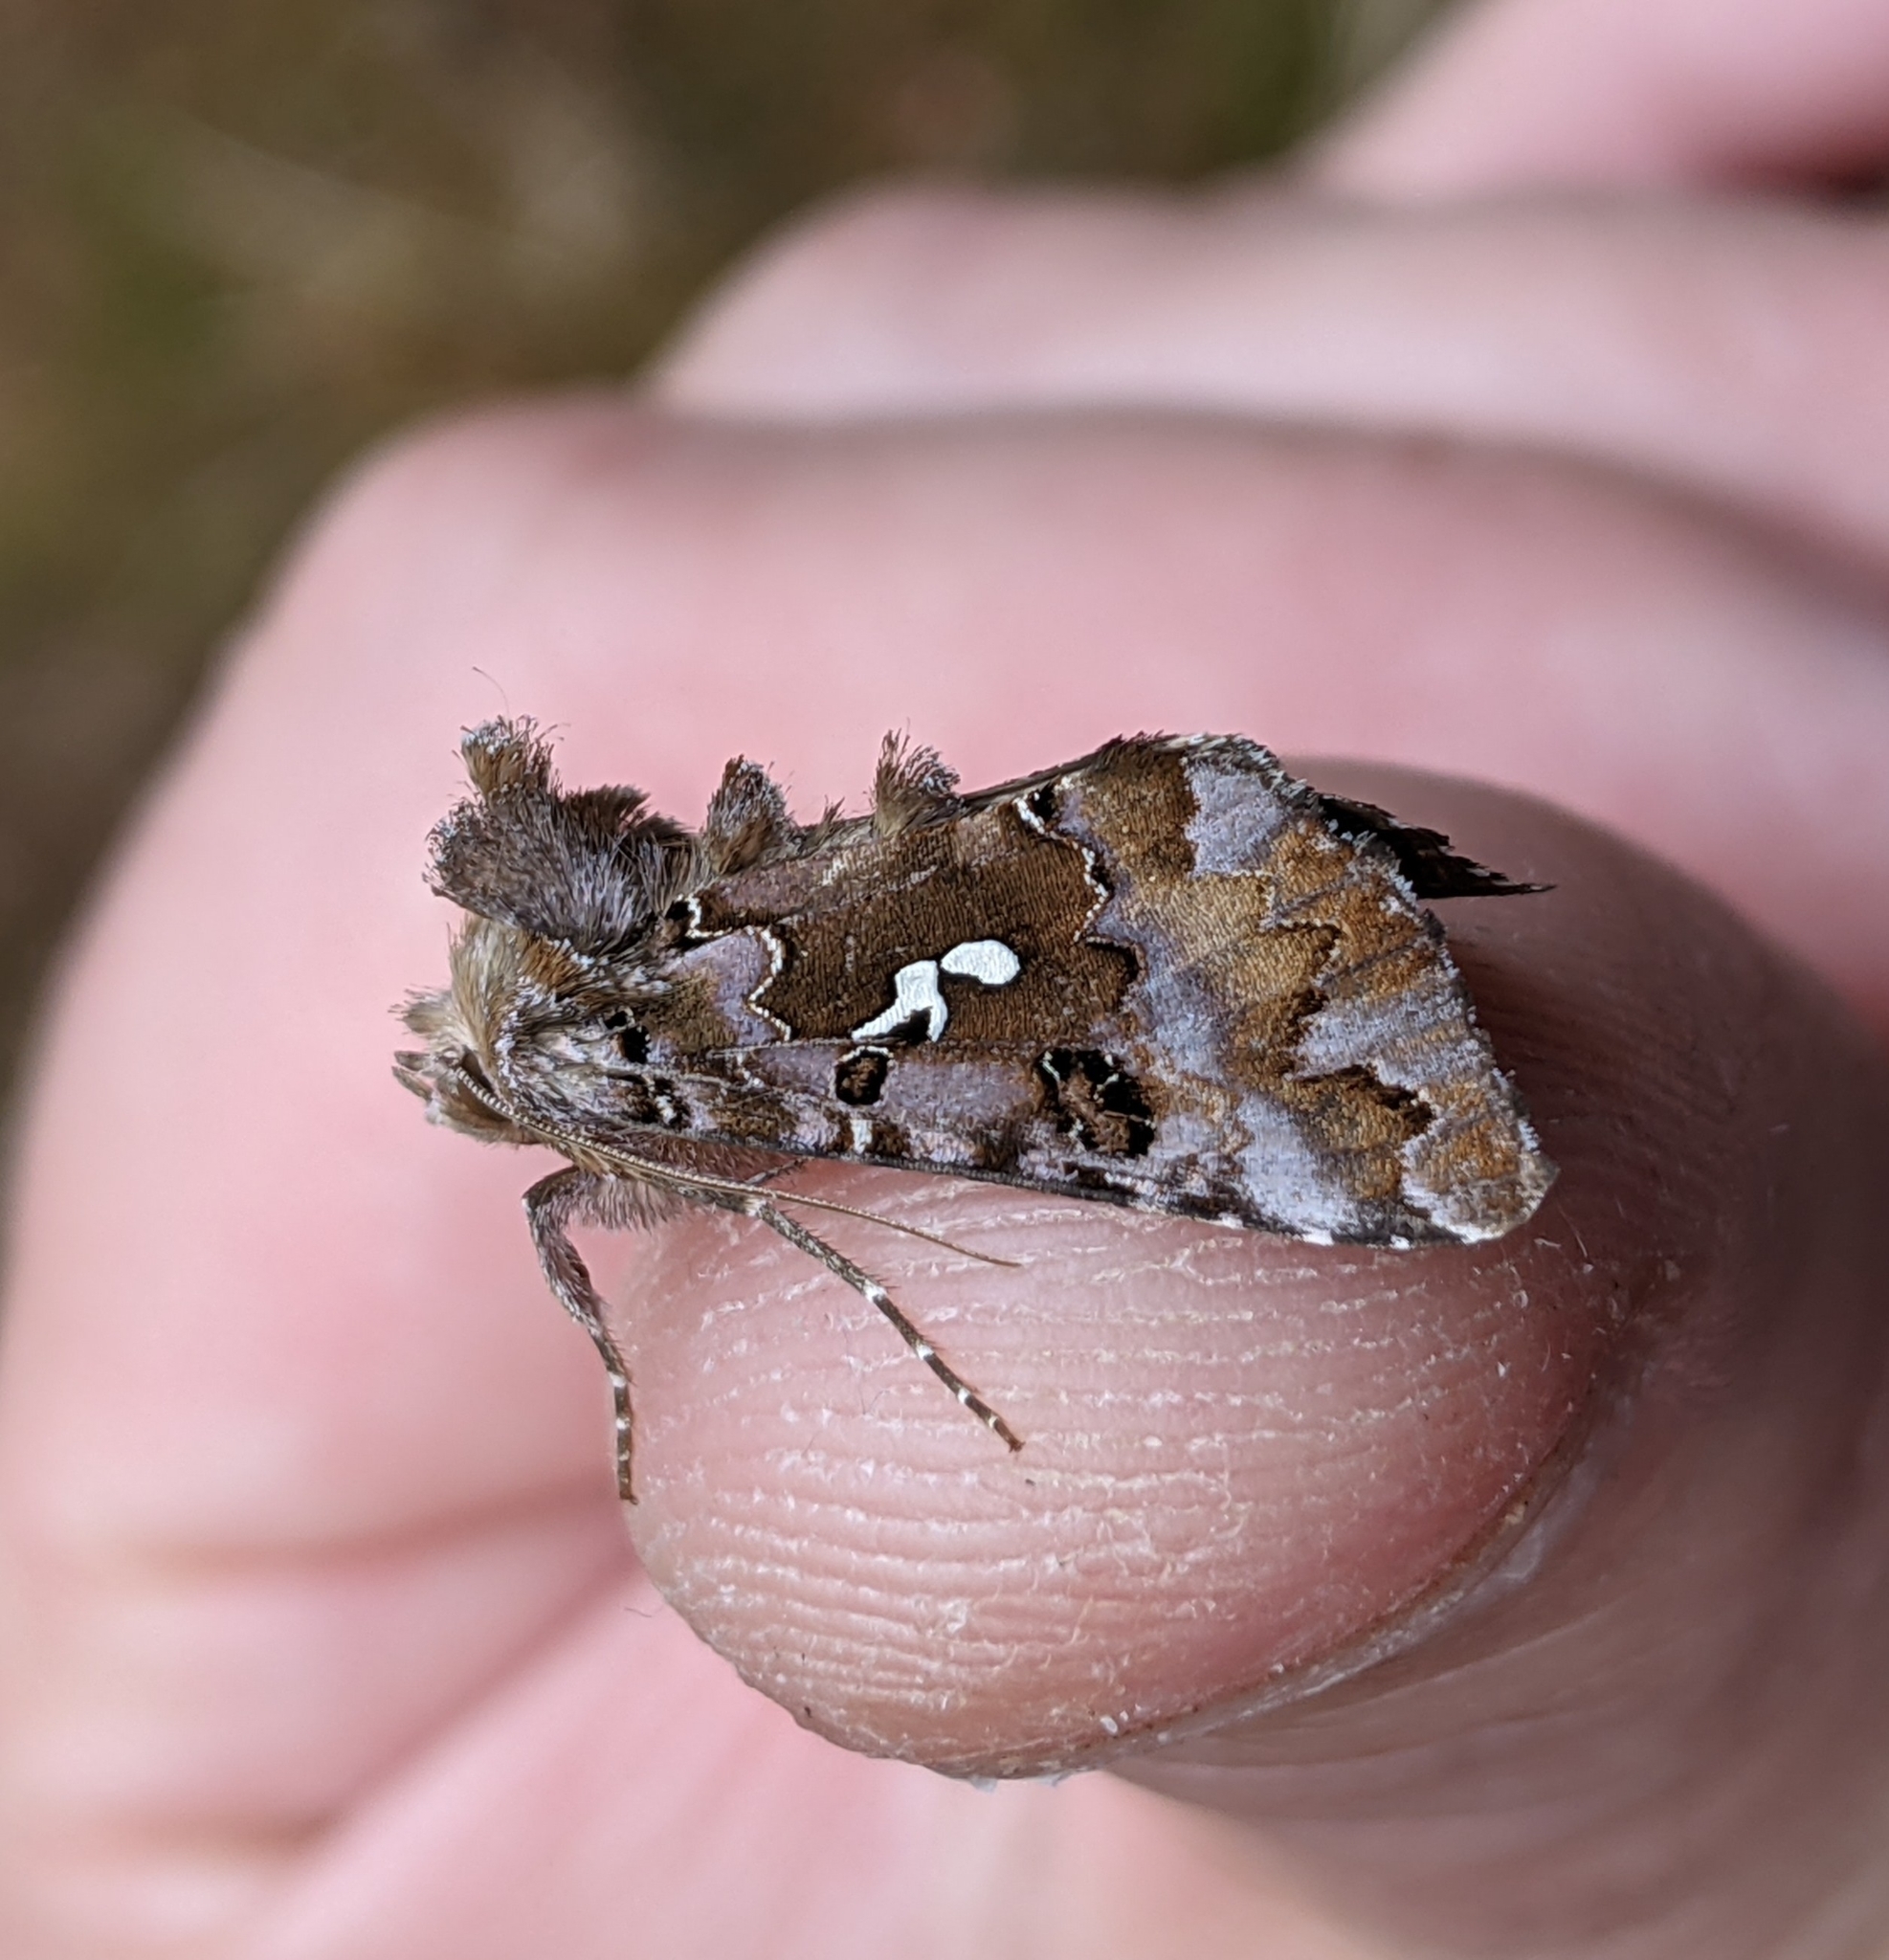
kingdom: Animalia
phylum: Arthropoda
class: Insecta
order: Lepidoptera
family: Noctuidae
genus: Autographa
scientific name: Autographa corusca
